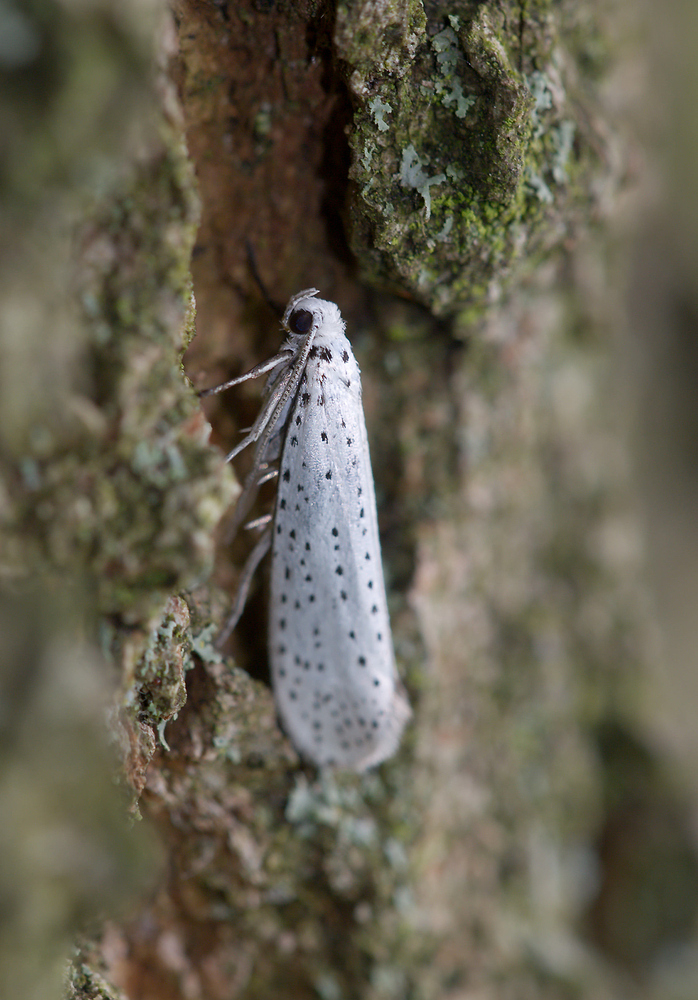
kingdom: Animalia
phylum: Arthropoda
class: Insecta
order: Lepidoptera
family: Yponomeutidae
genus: Yponomeuta
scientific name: Yponomeuta evonymella
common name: Bird-cherry ermine
